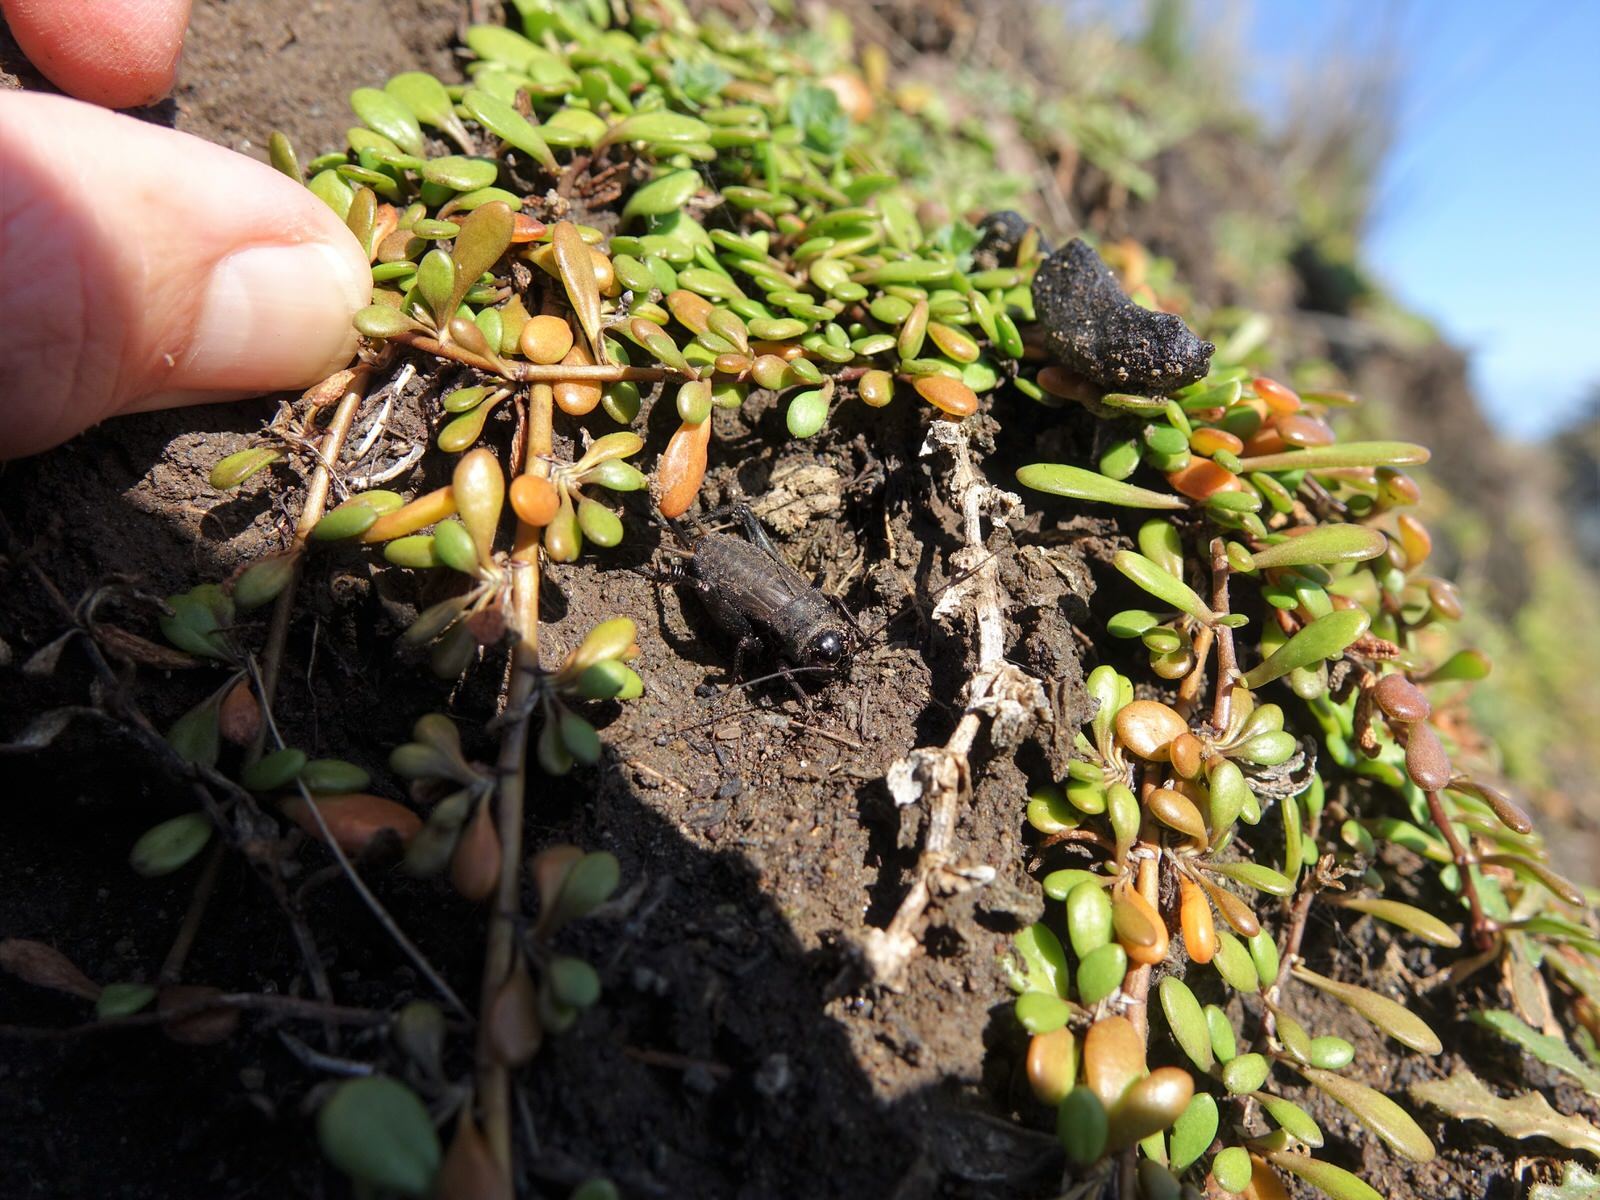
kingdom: Animalia
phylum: Arthropoda
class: Insecta
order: Orthoptera
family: Gryllidae
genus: Teleogryllus
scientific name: Teleogryllus commodus
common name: Black field cricket
